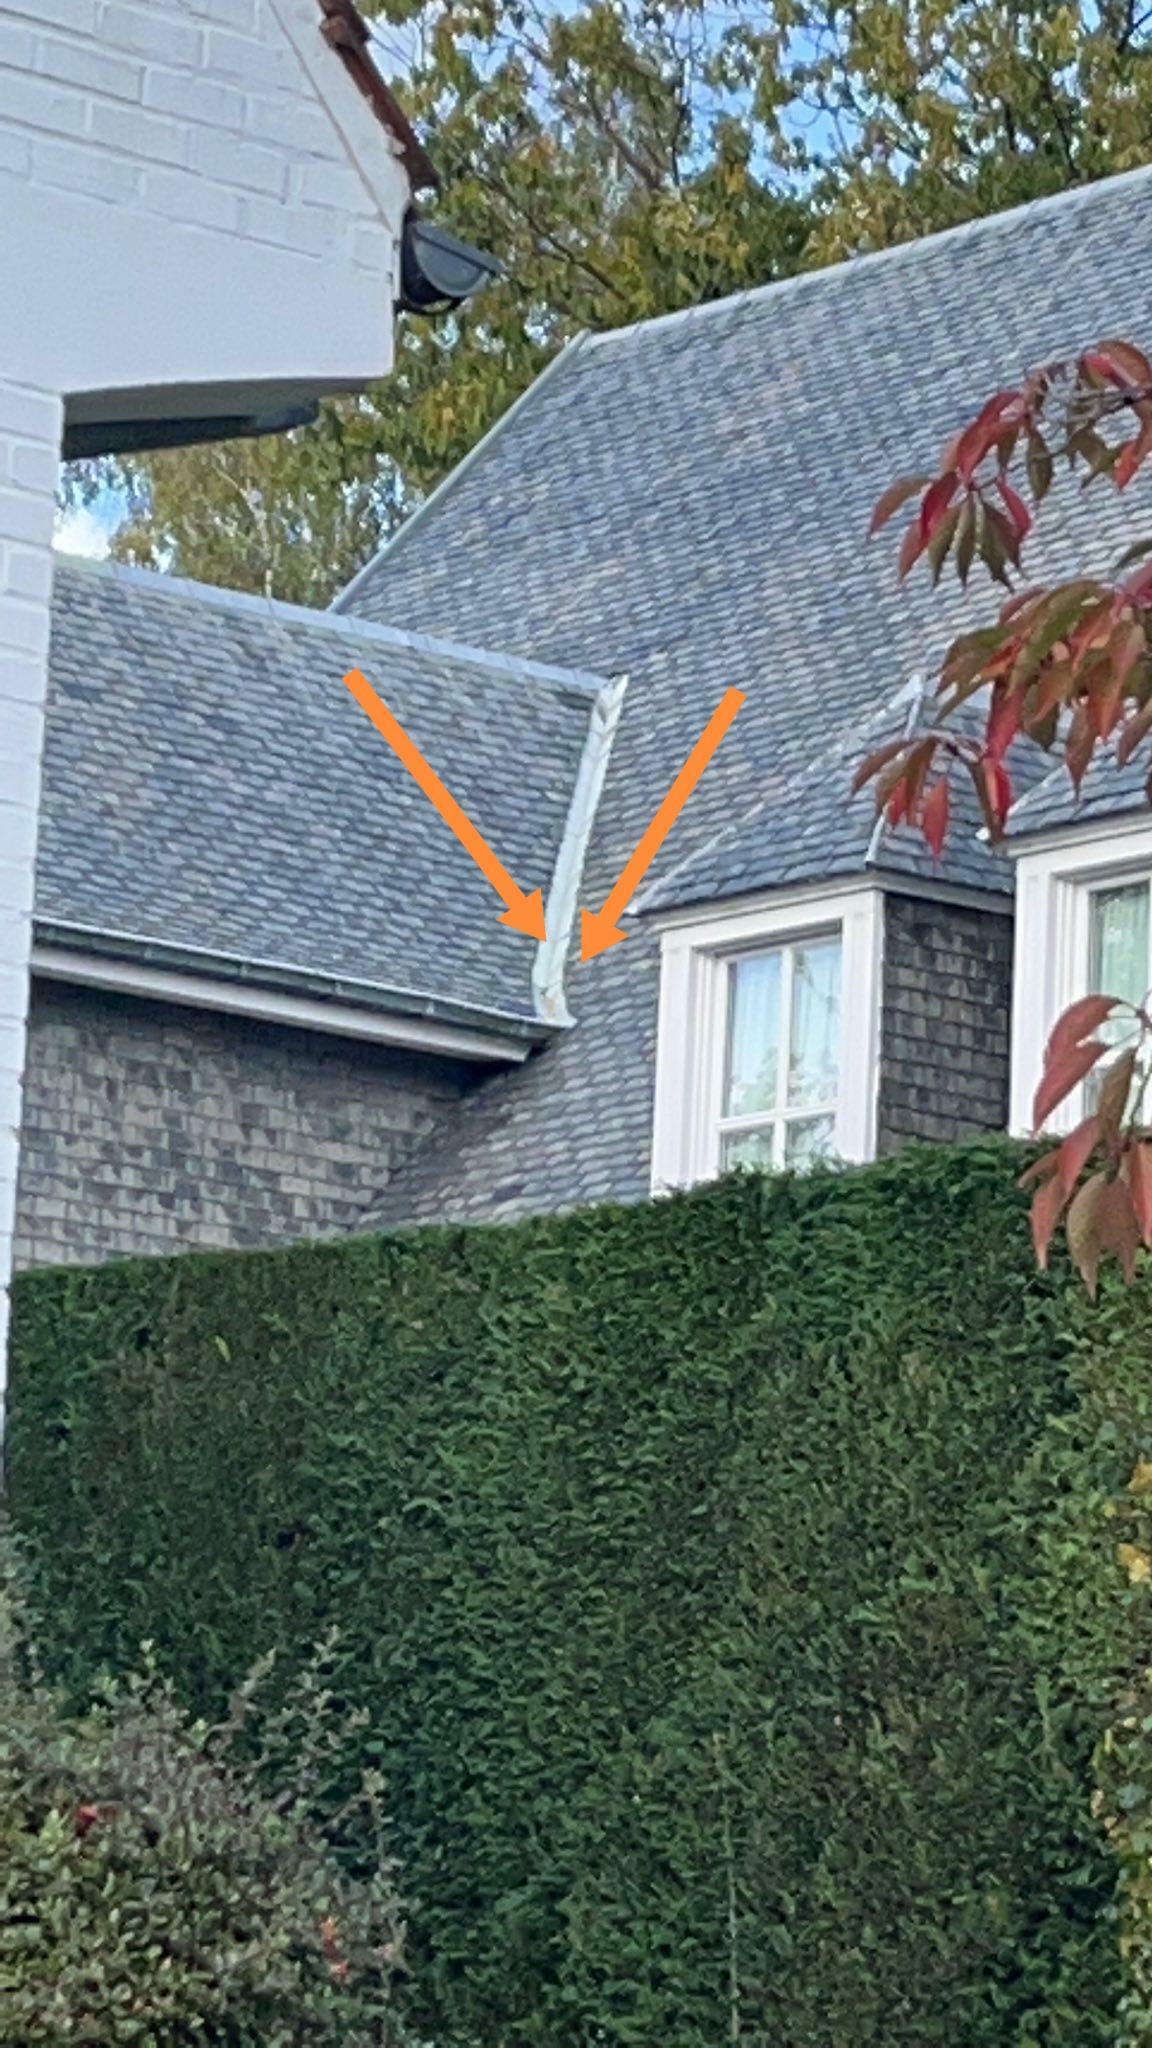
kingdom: Animalia
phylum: Arthropoda
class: Insecta
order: Hymenoptera
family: Vespidae
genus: Vespa
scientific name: Vespa velutina
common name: Asian hornet
